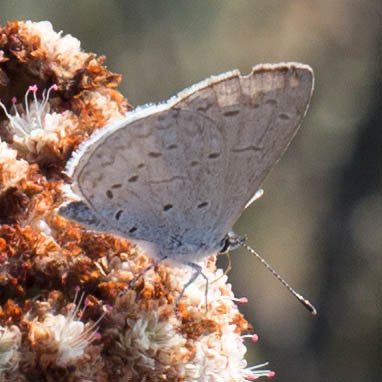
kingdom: Animalia
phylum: Arthropoda
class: Insecta
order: Lepidoptera
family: Lycaenidae
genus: Celastrina
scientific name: Celastrina ladon
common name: Spring azure
